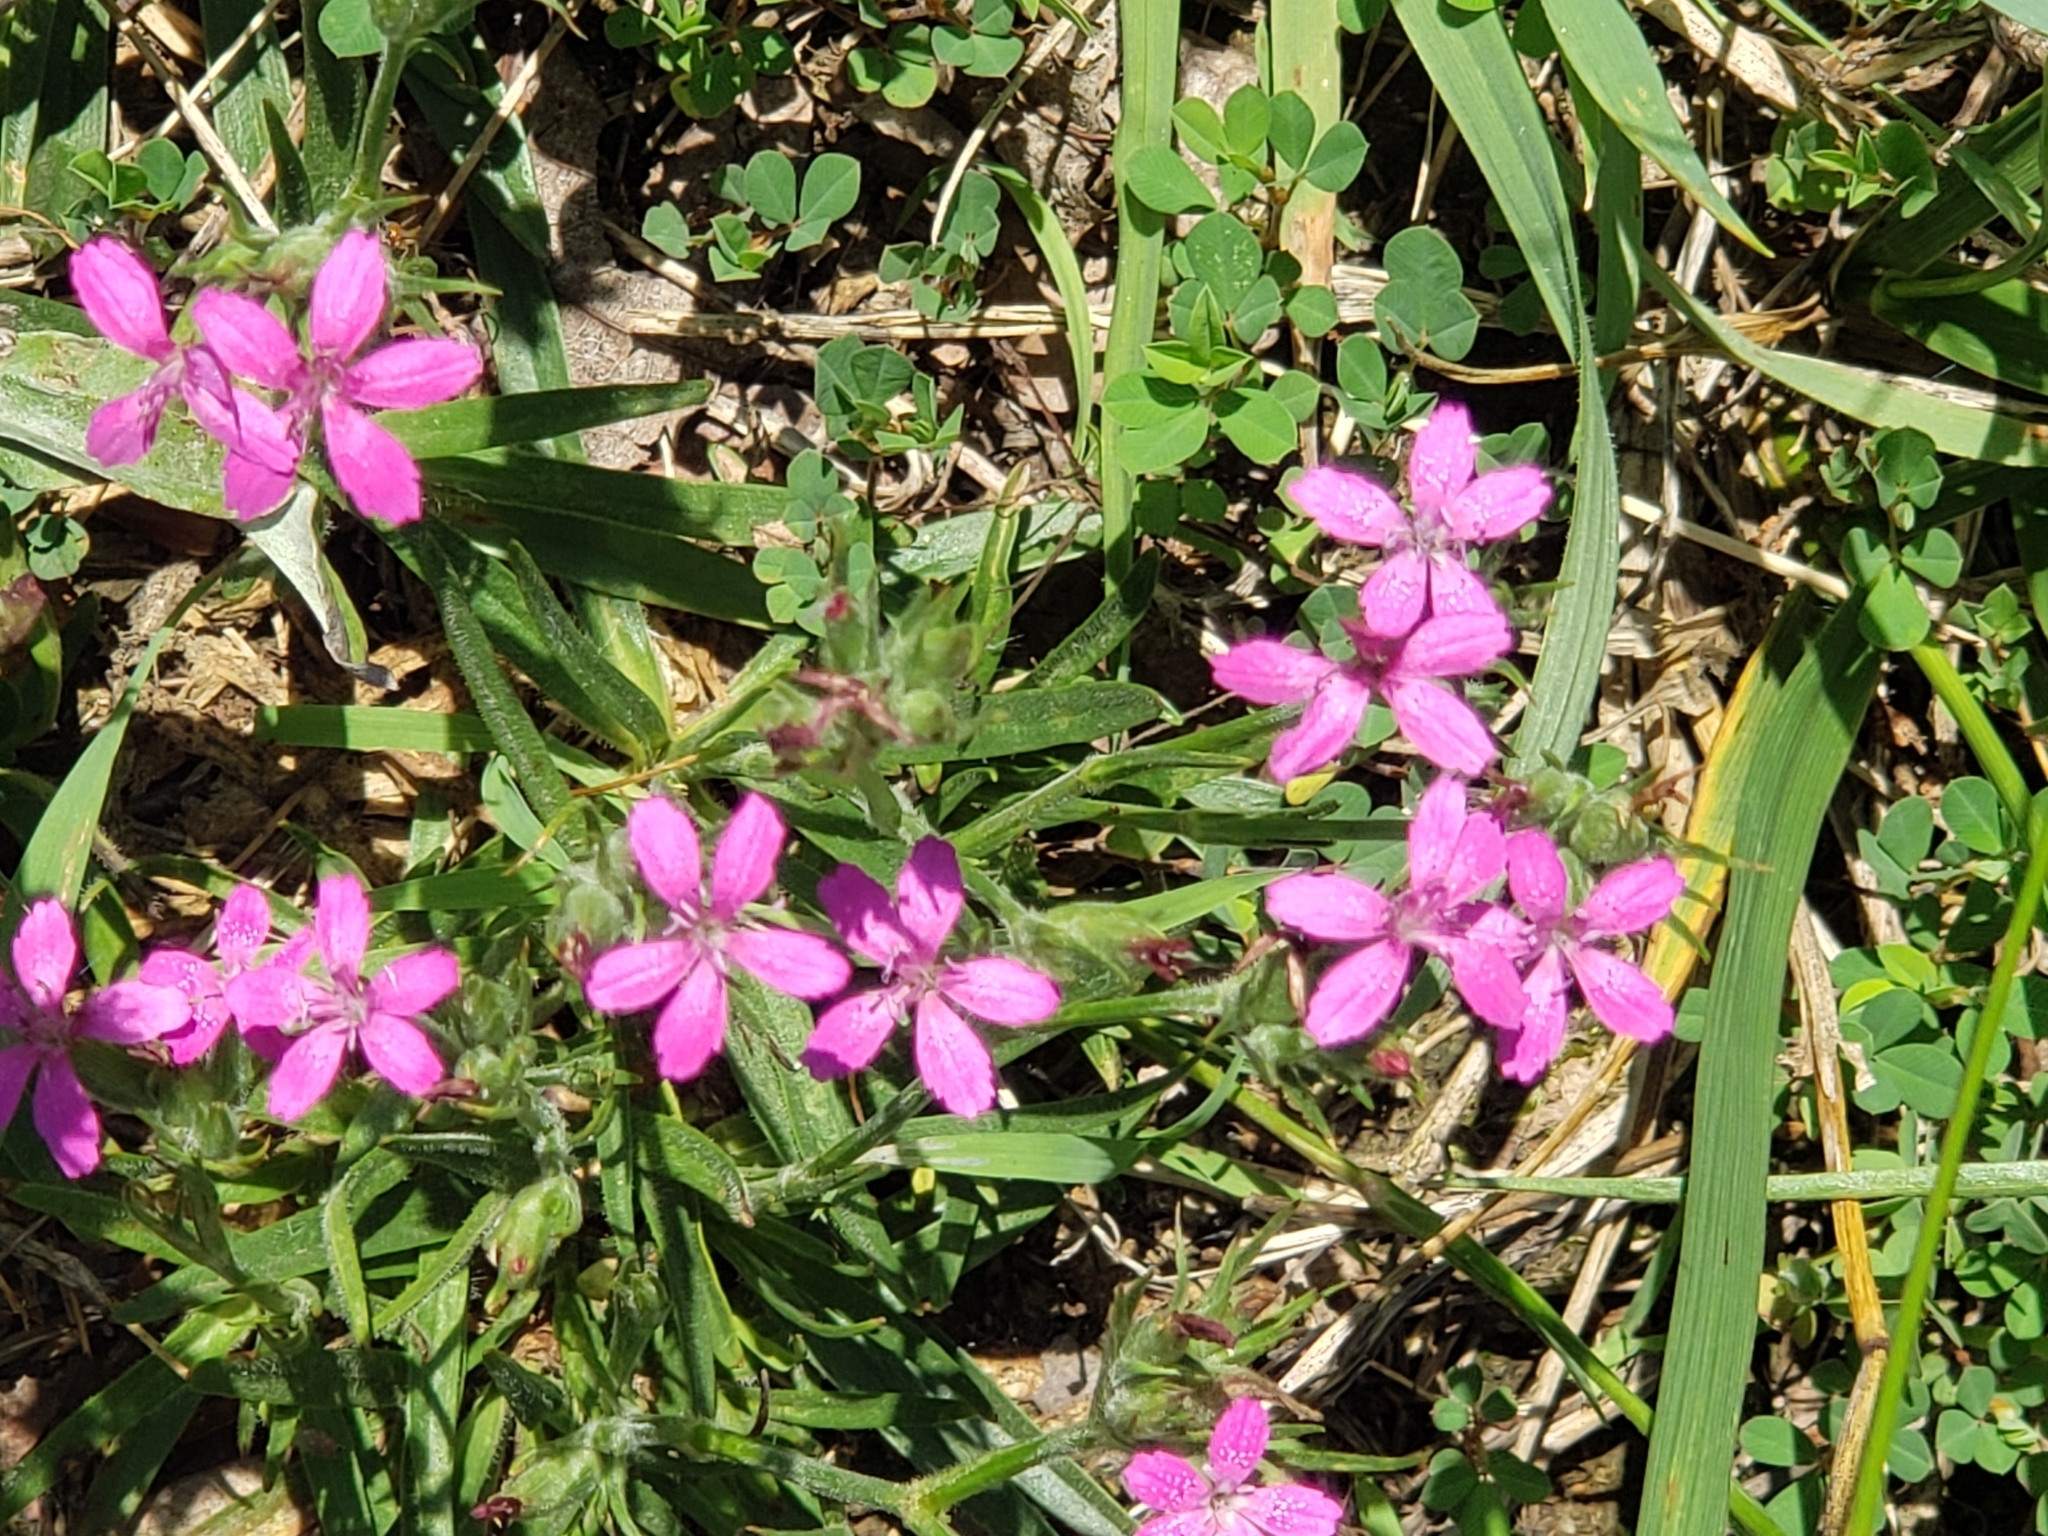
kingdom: Plantae
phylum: Tracheophyta
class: Magnoliopsida
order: Caryophyllales
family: Caryophyllaceae
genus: Dianthus
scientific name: Dianthus armeria
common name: Deptford pink
